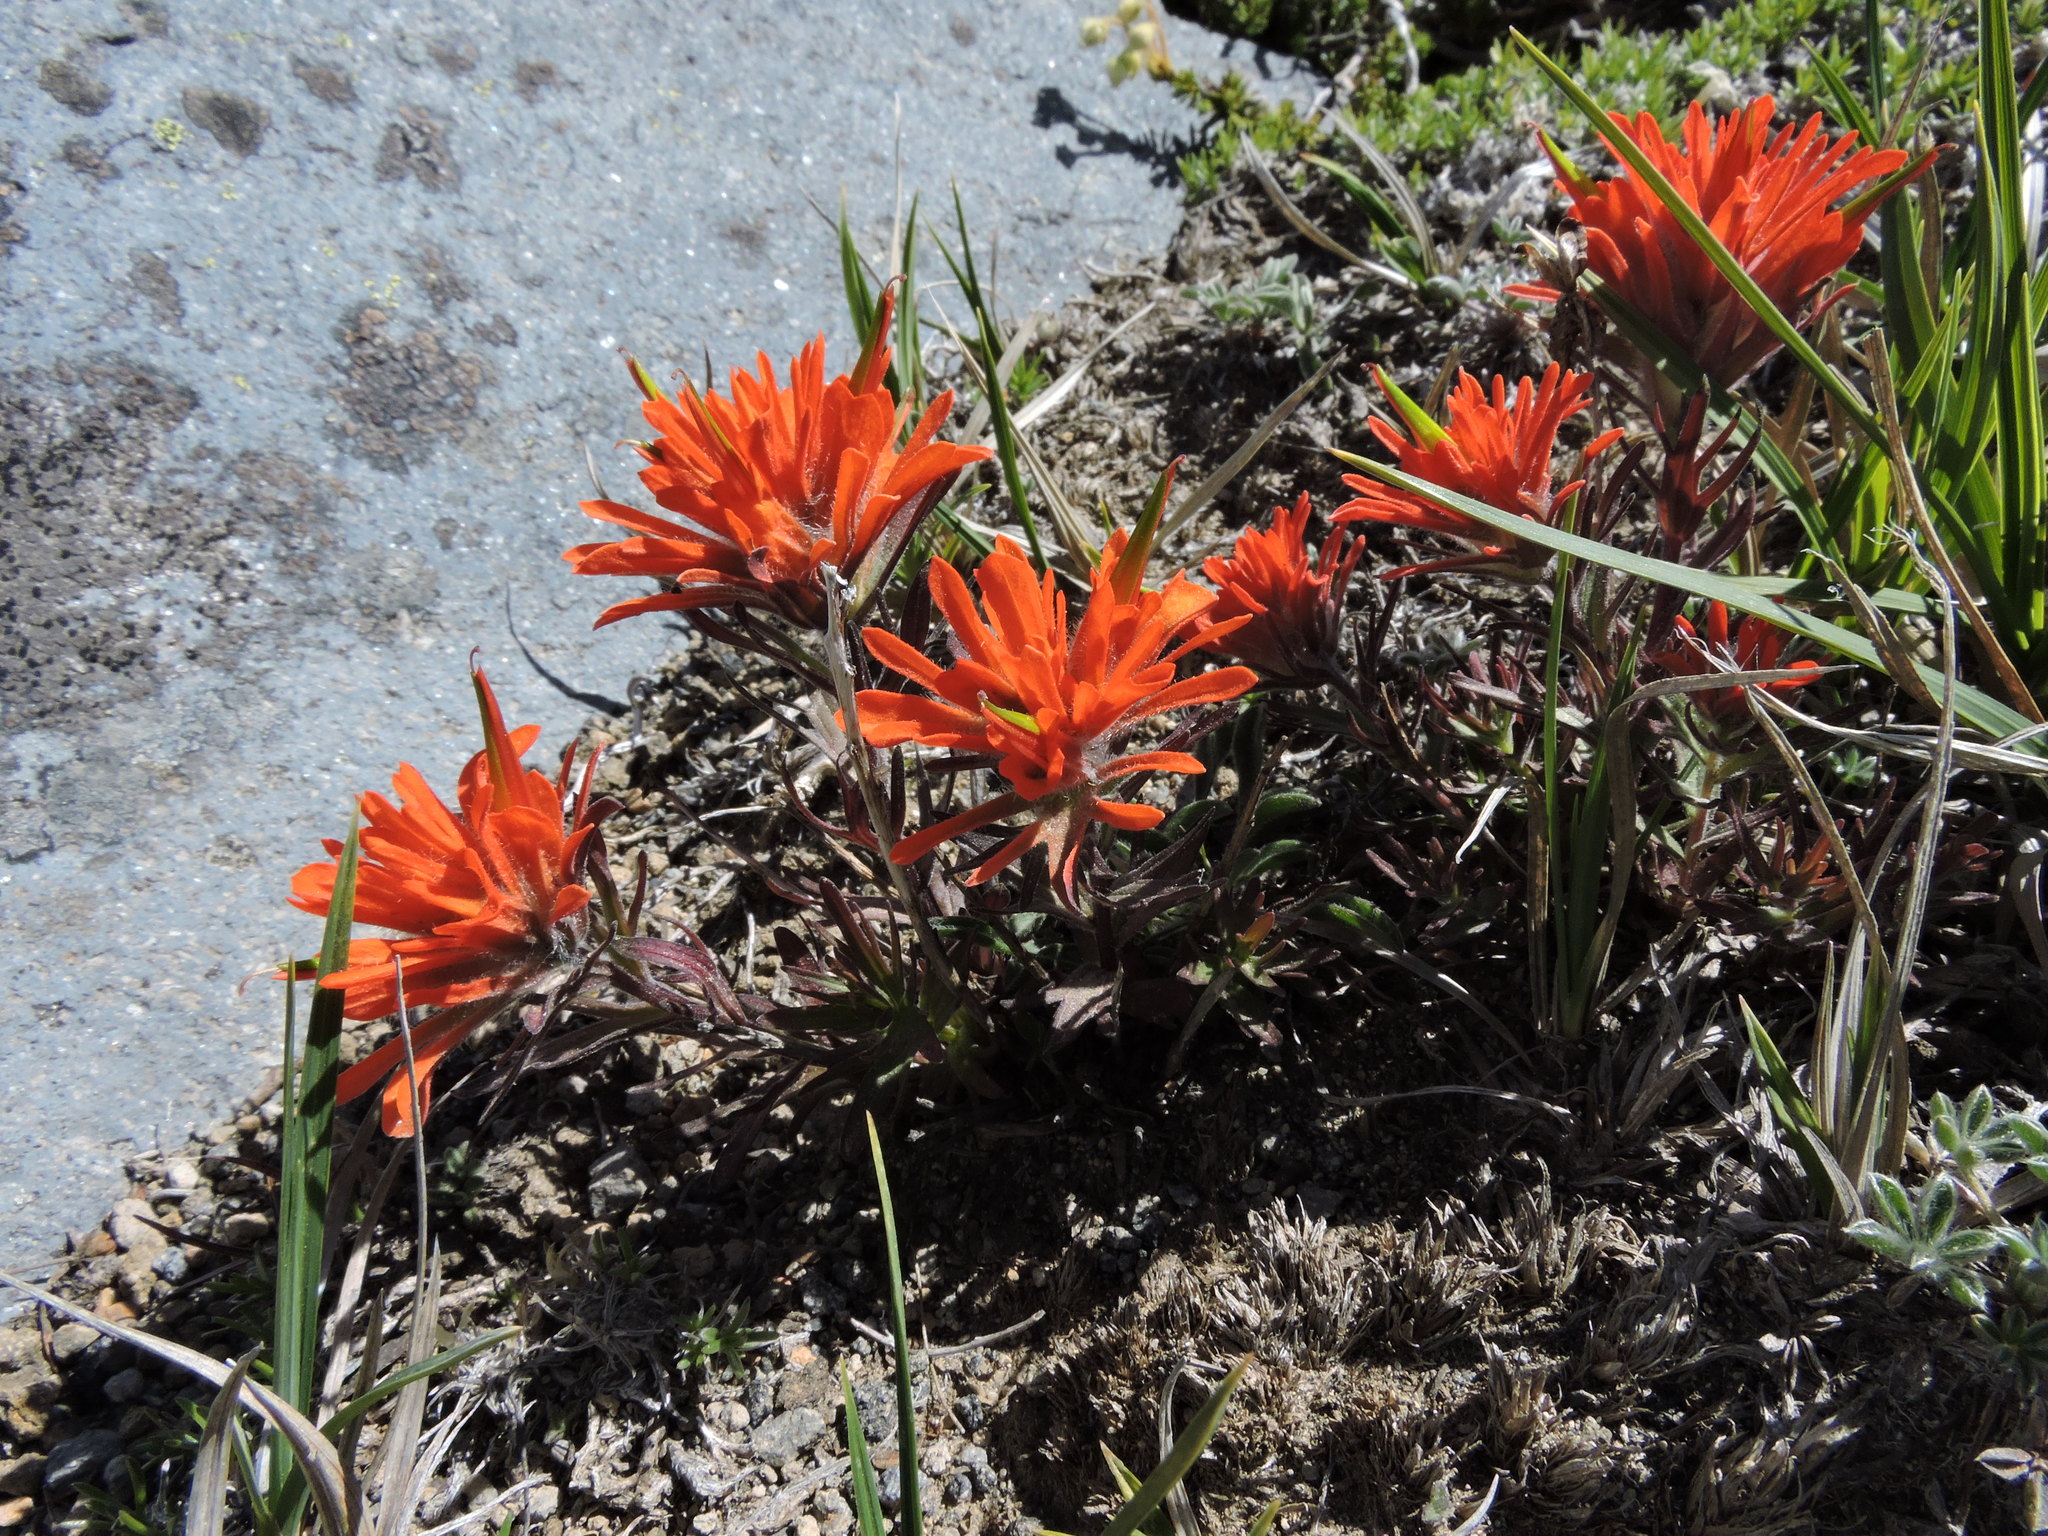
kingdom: Plantae
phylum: Tracheophyta
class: Magnoliopsida
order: Lamiales
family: Orobanchaceae
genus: Castilleja
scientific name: Castilleja rupicola
